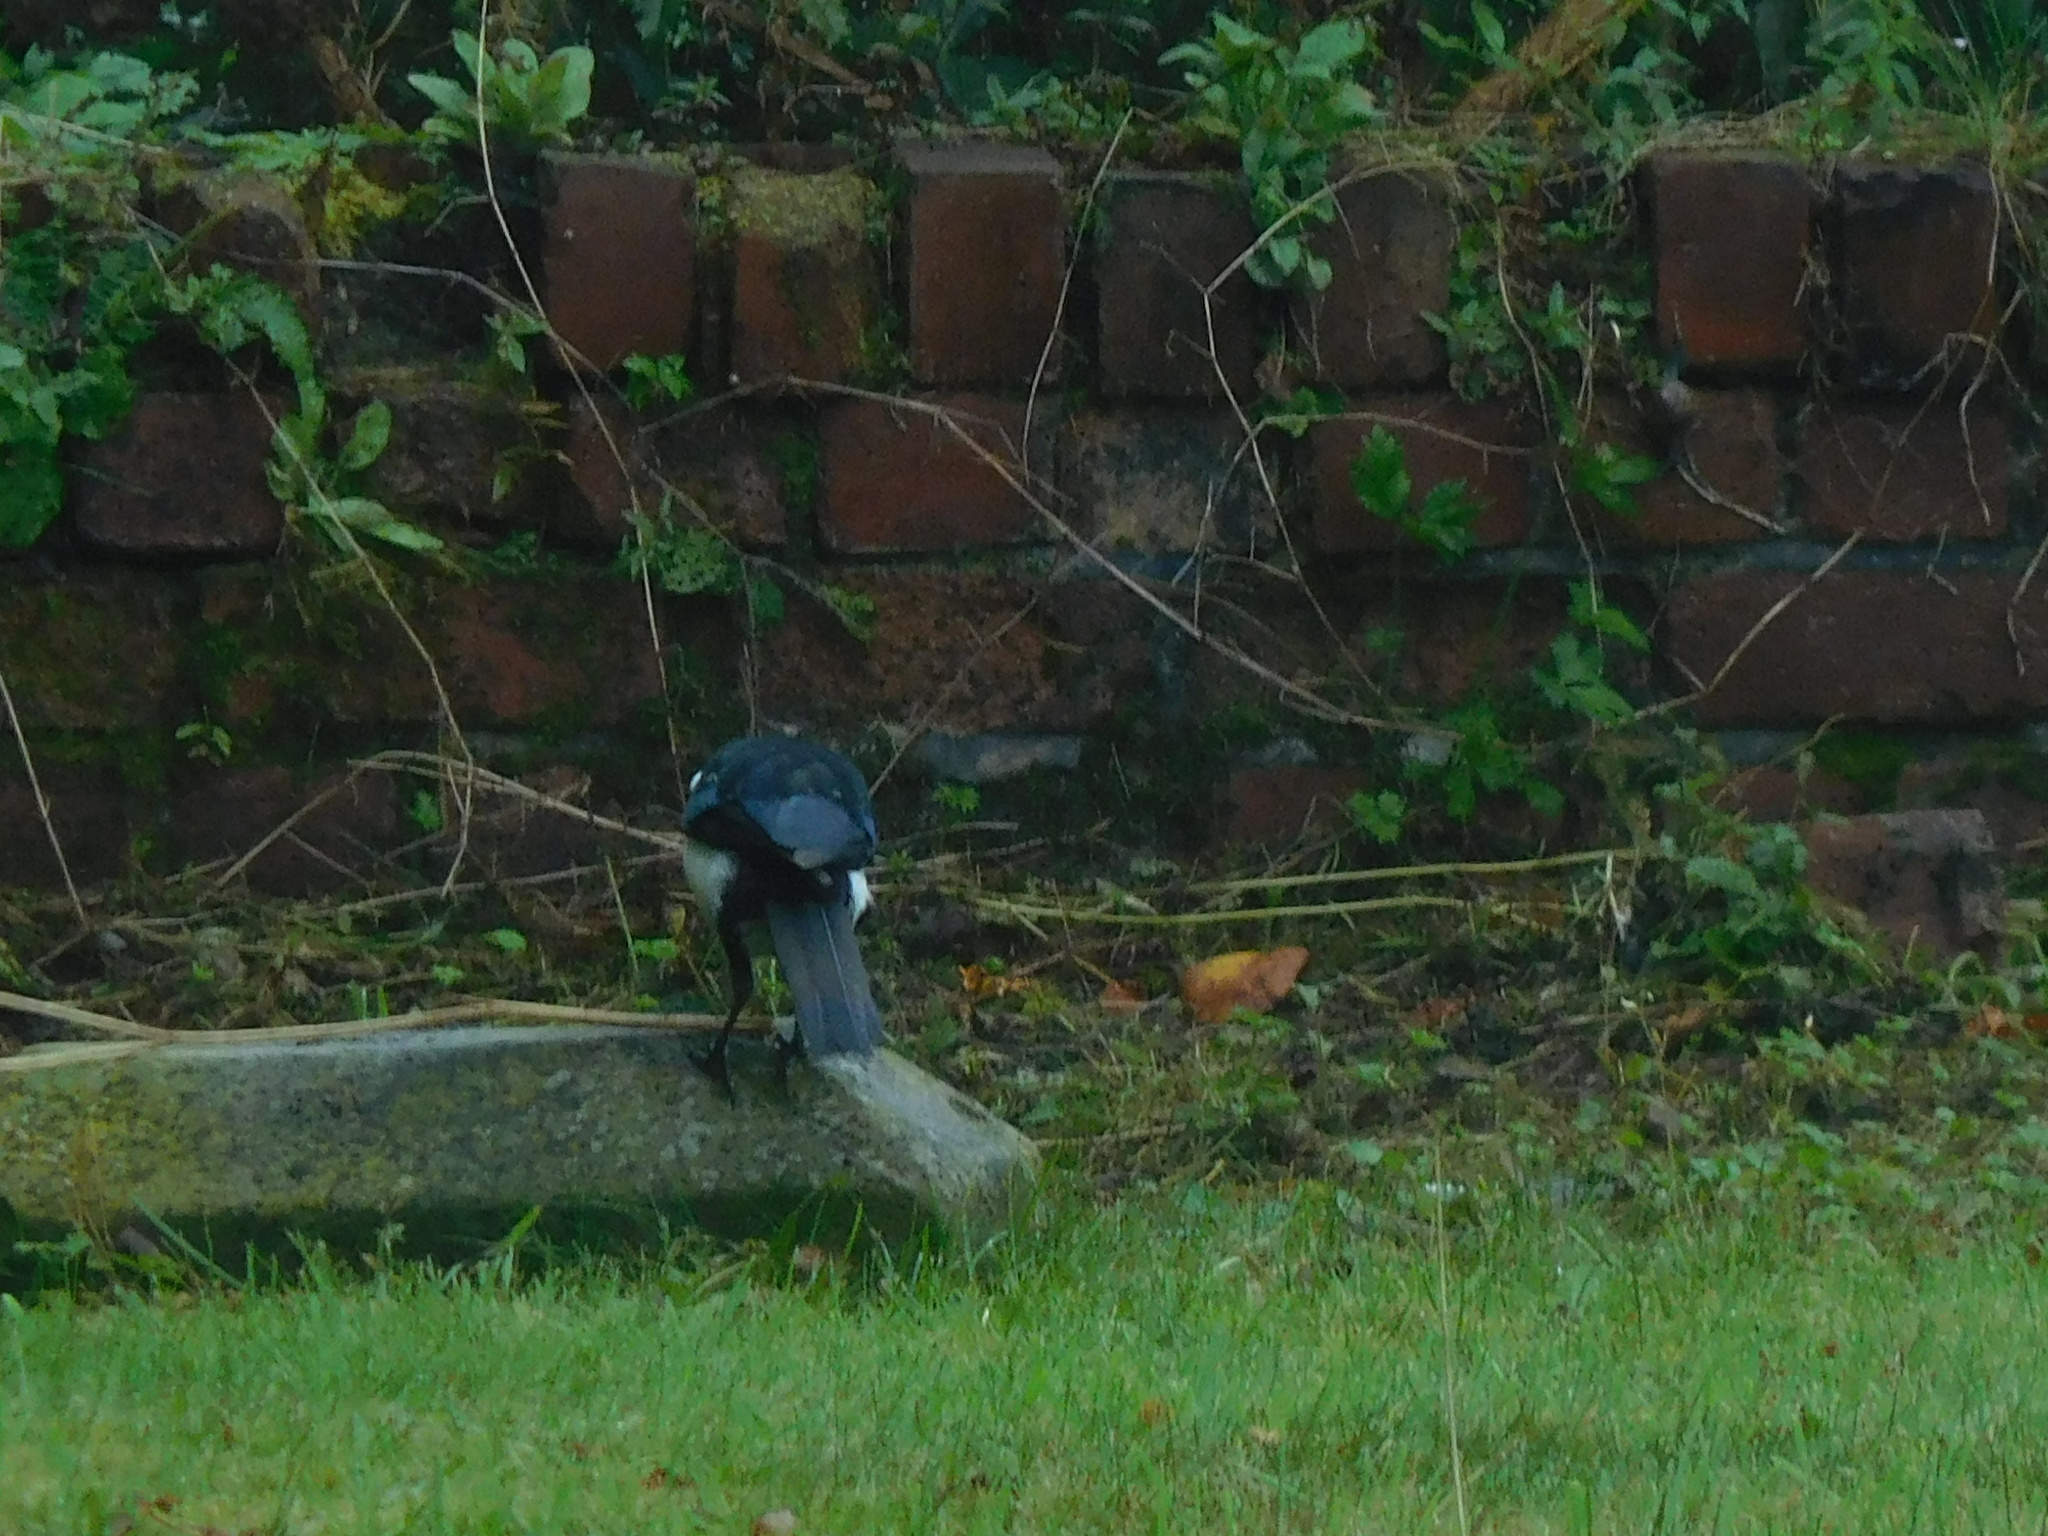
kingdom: Animalia
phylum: Chordata
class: Aves
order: Passeriformes
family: Corvidae
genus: Pica
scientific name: Pica pica
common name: Eurasian magpie
